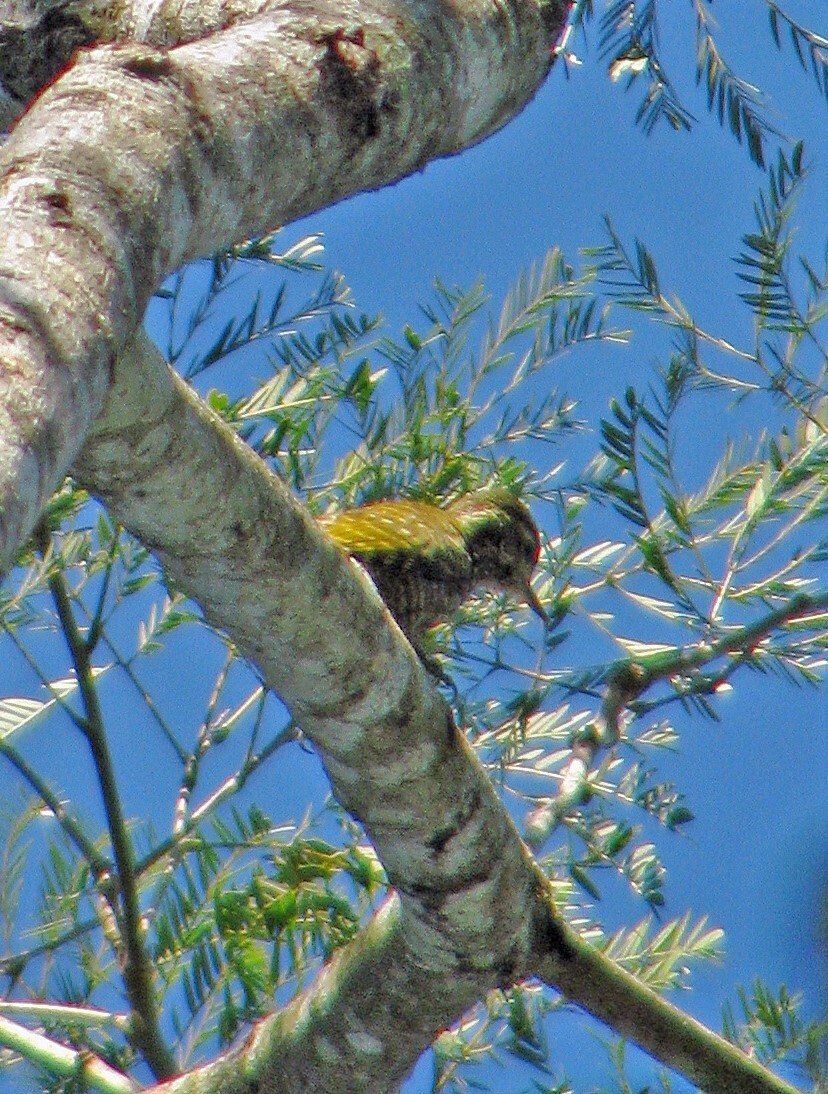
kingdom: Animalia
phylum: Chordata
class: Aves
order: Piciformes
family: Picidae
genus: Veniliornis
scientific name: Veniliornis spilogaster
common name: White-spotted woodpecker
